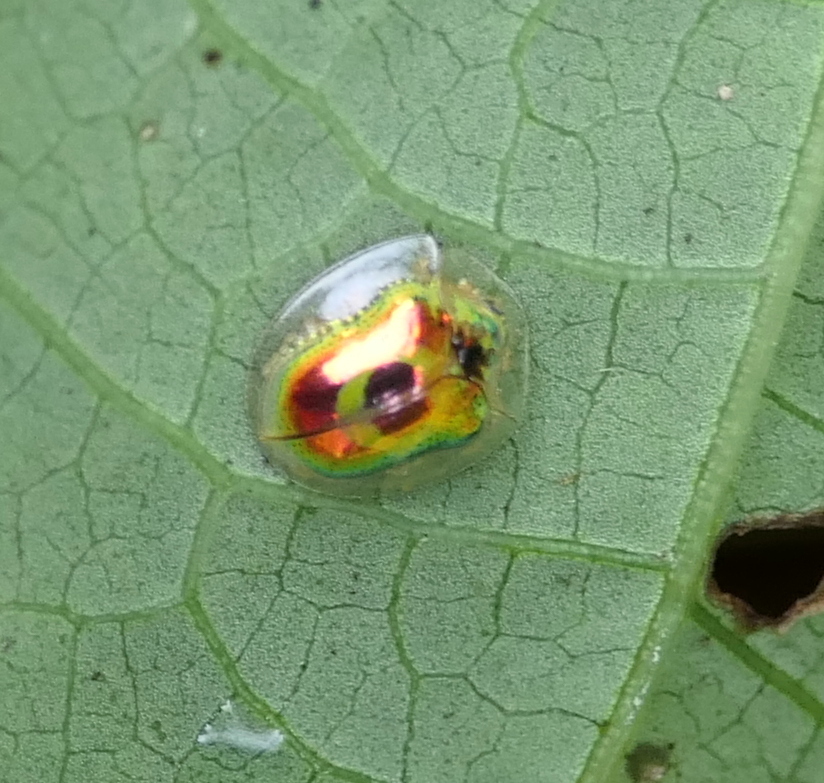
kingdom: Animalia
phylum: Arthropoda
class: Insecta
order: Coleoptera
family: Chrysomelidae
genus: Charidotella
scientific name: Charidotella zona
